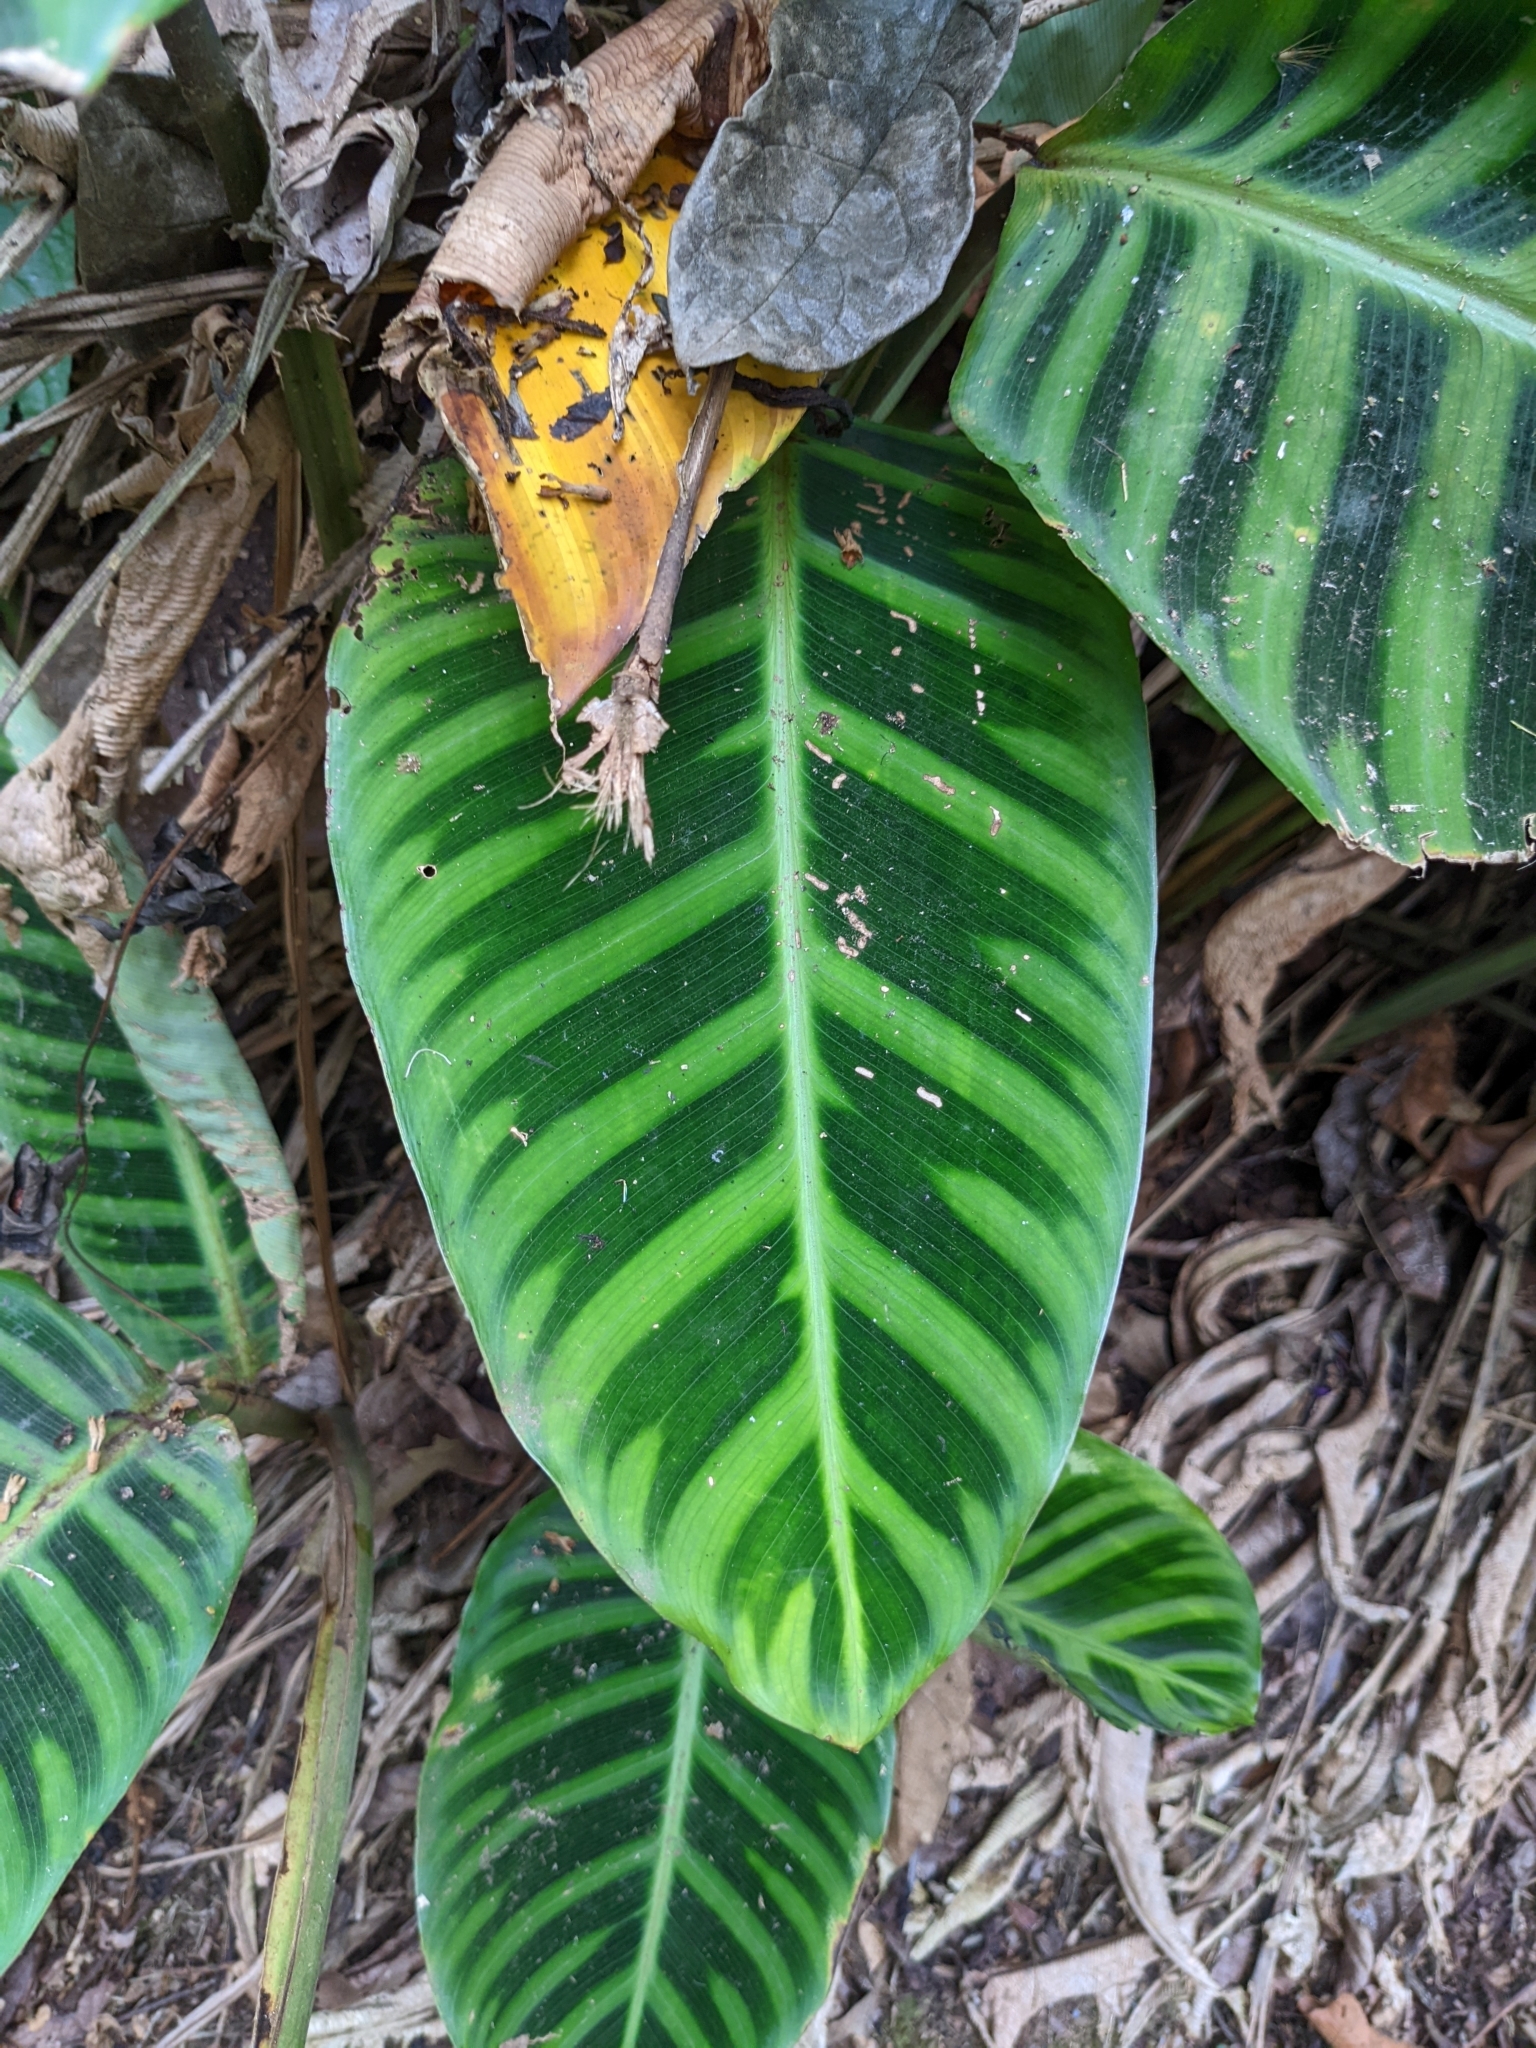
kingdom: Plantae
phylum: Tracheophyta
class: Liliopsida
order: Zingiberales
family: Marantaceae
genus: Goeppertia
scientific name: Goeppertia zebrina
